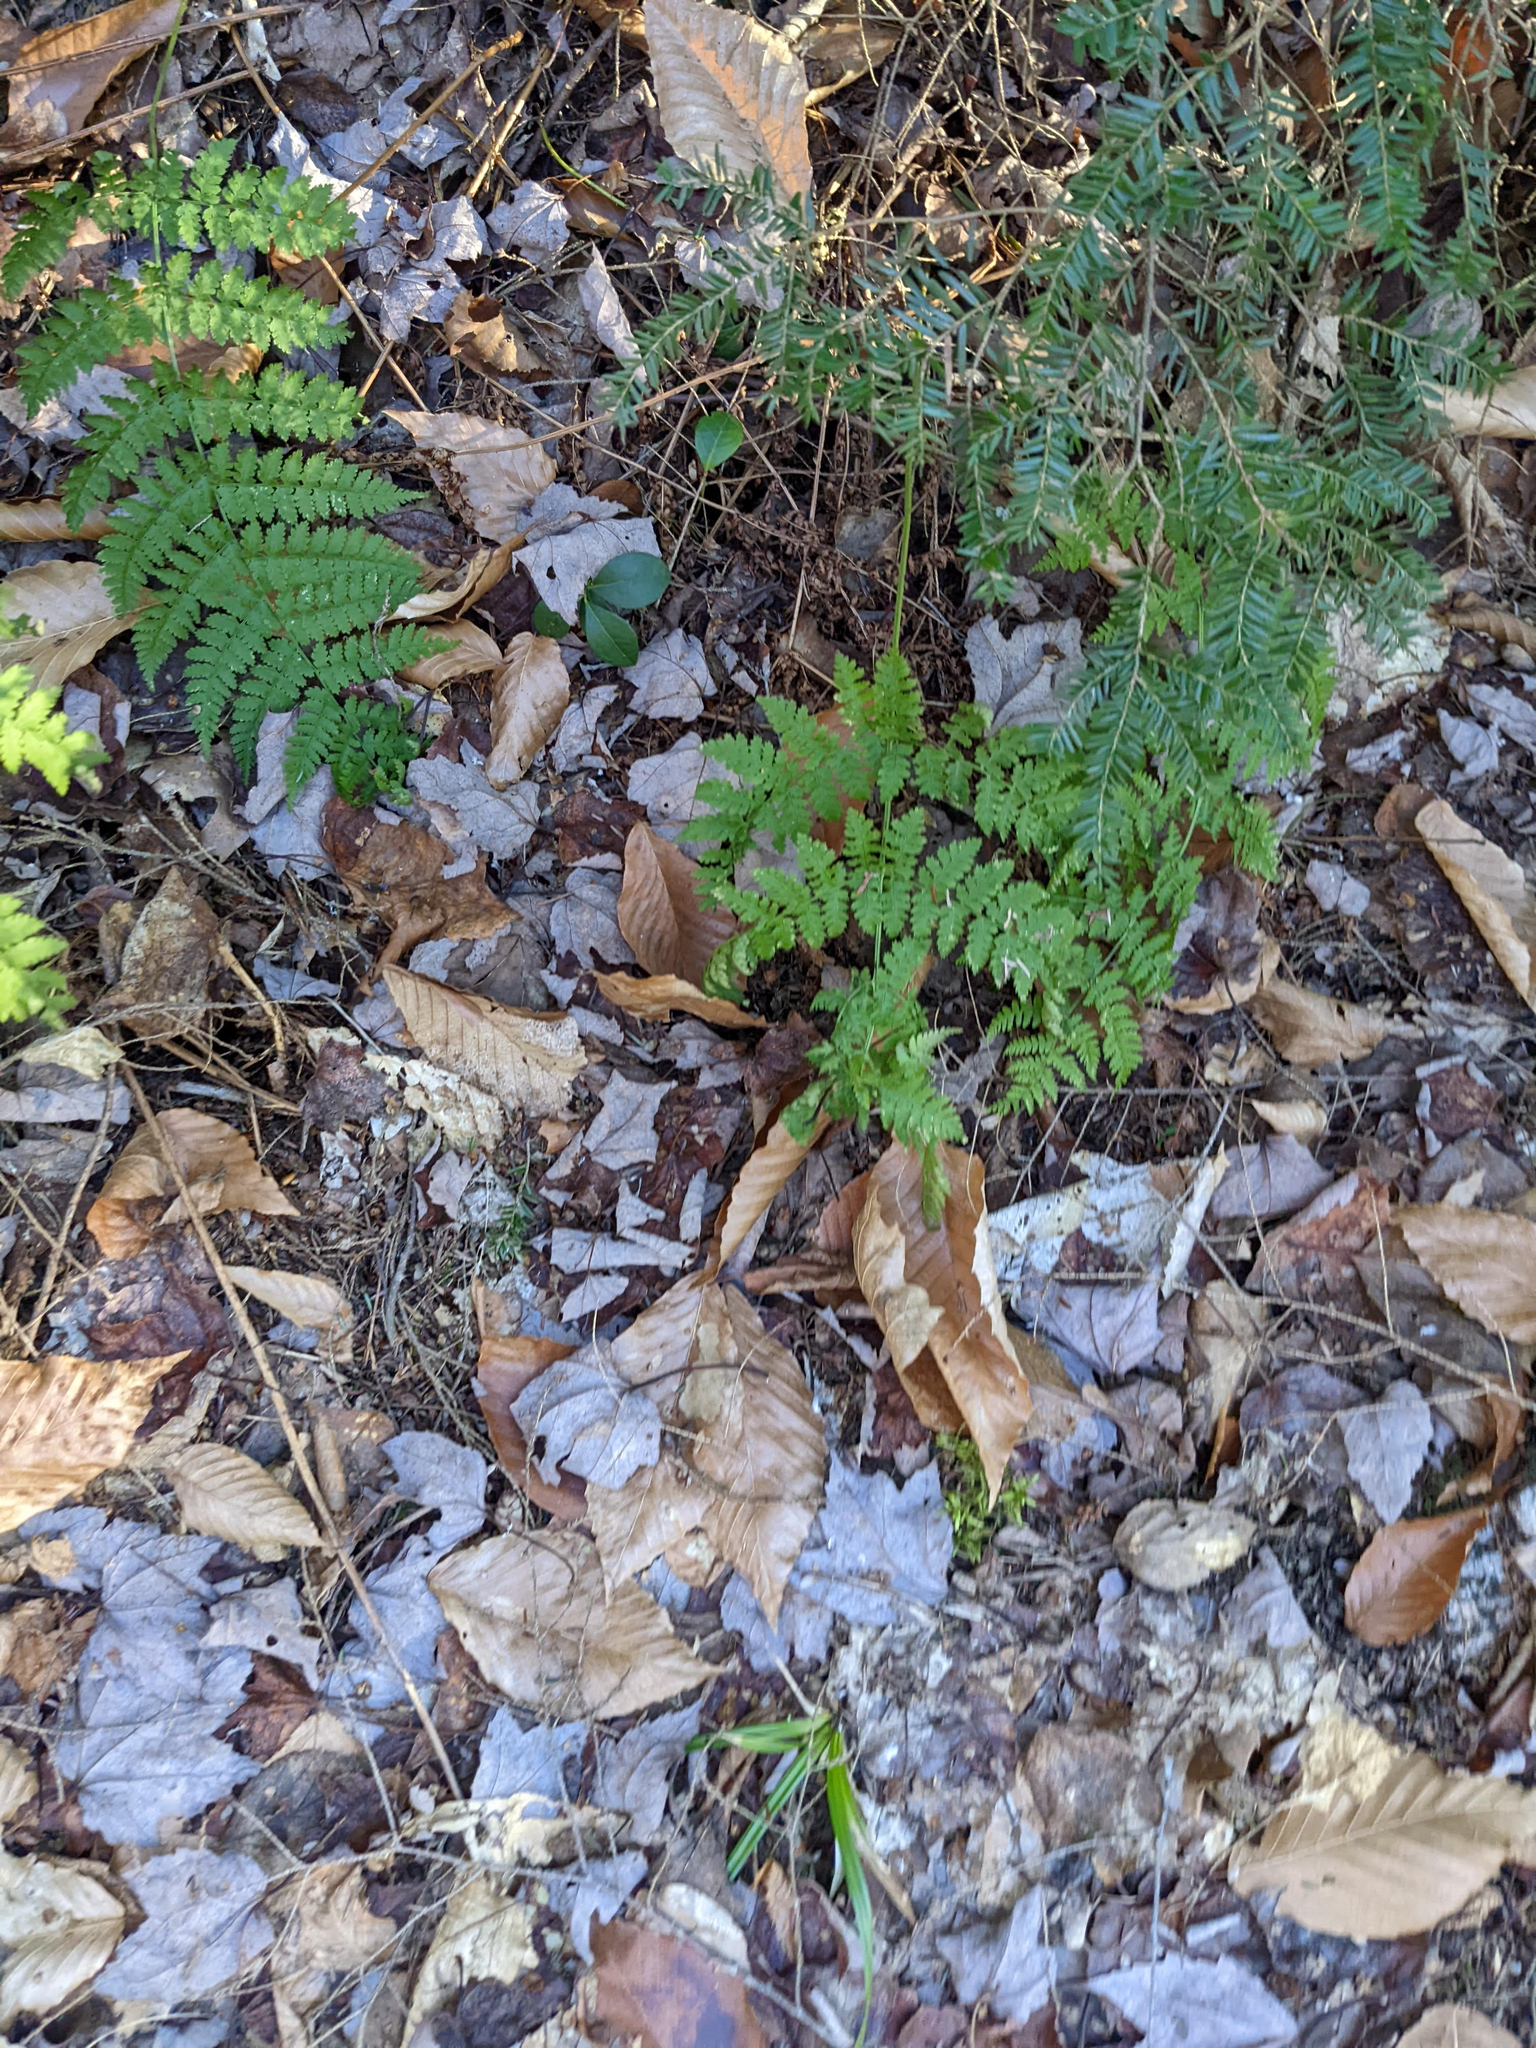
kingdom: Plantae
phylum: Tracheophyta
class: Polypodiopsida
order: Polypodiales
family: Dryopteridaceae
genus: Dryopteris
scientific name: Dryopteris intermedia
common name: Evergreen wood fern
